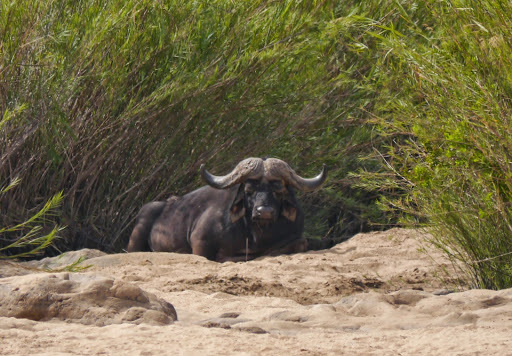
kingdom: Animalia
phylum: Chordata
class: Mammalia
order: Artiodactyla
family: Bovidae
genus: Syncerus
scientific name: Syncerus caffer
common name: African buffalo
